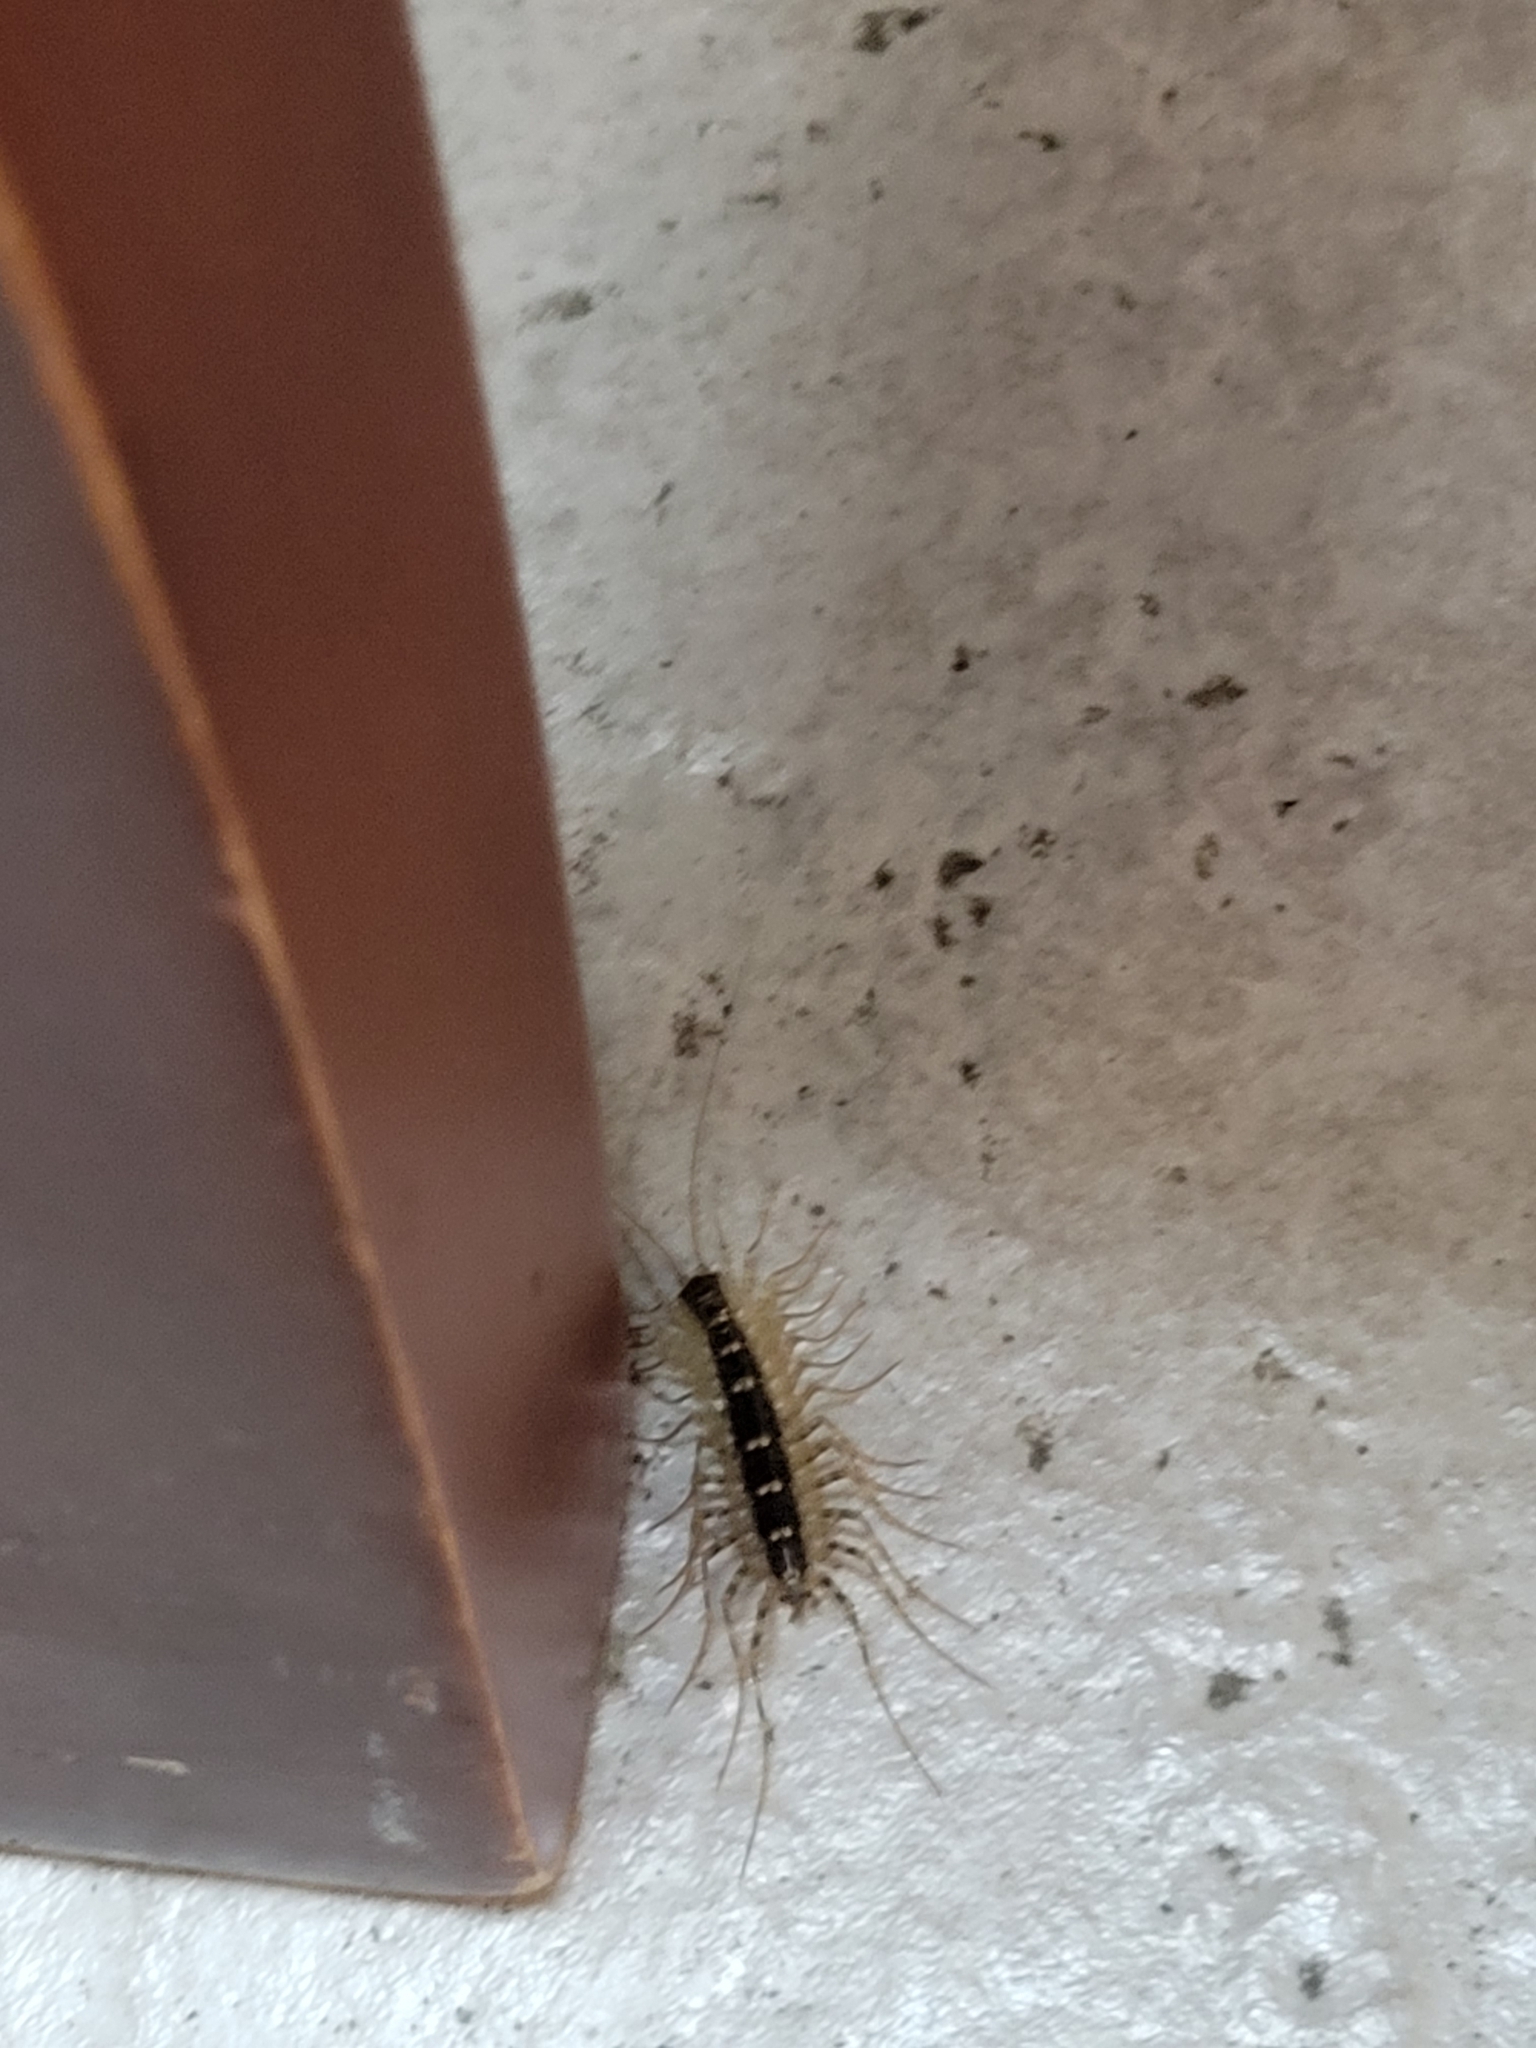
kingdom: Animalia
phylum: Arthropoda
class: Chilopoda
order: Scutigeromorpha
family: Scutigeridae
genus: Scutigera
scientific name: Scutigera coleoptrata
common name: House centipede
